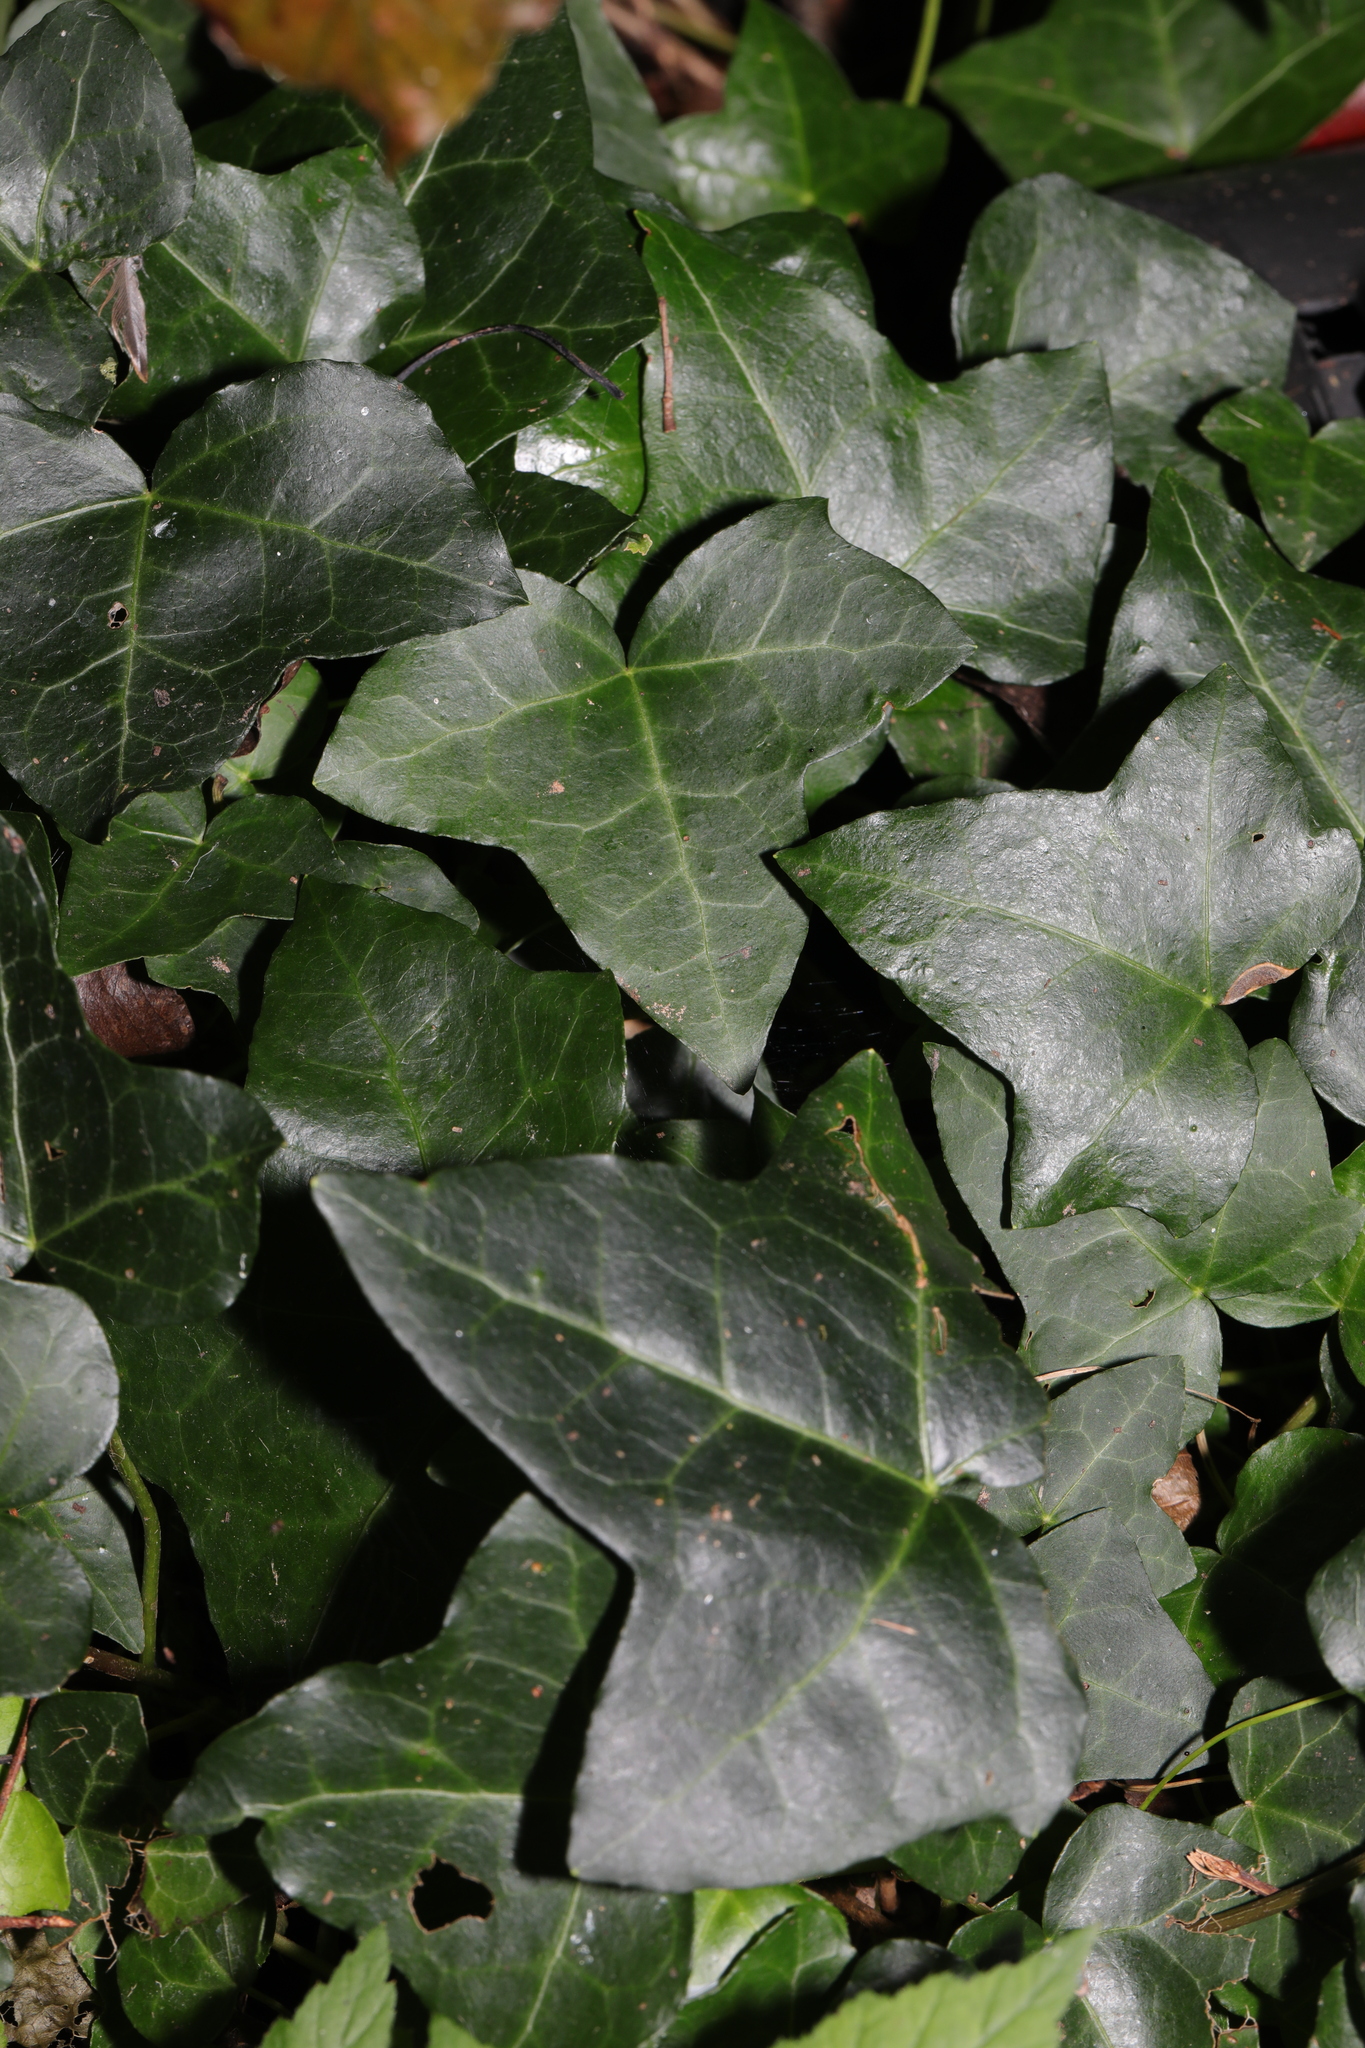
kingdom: Plantae
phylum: Tracheophyta
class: Magnoliopsida
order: Apiales
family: Araliaceae
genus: Hedera
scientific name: Hedera helix
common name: Ivy
